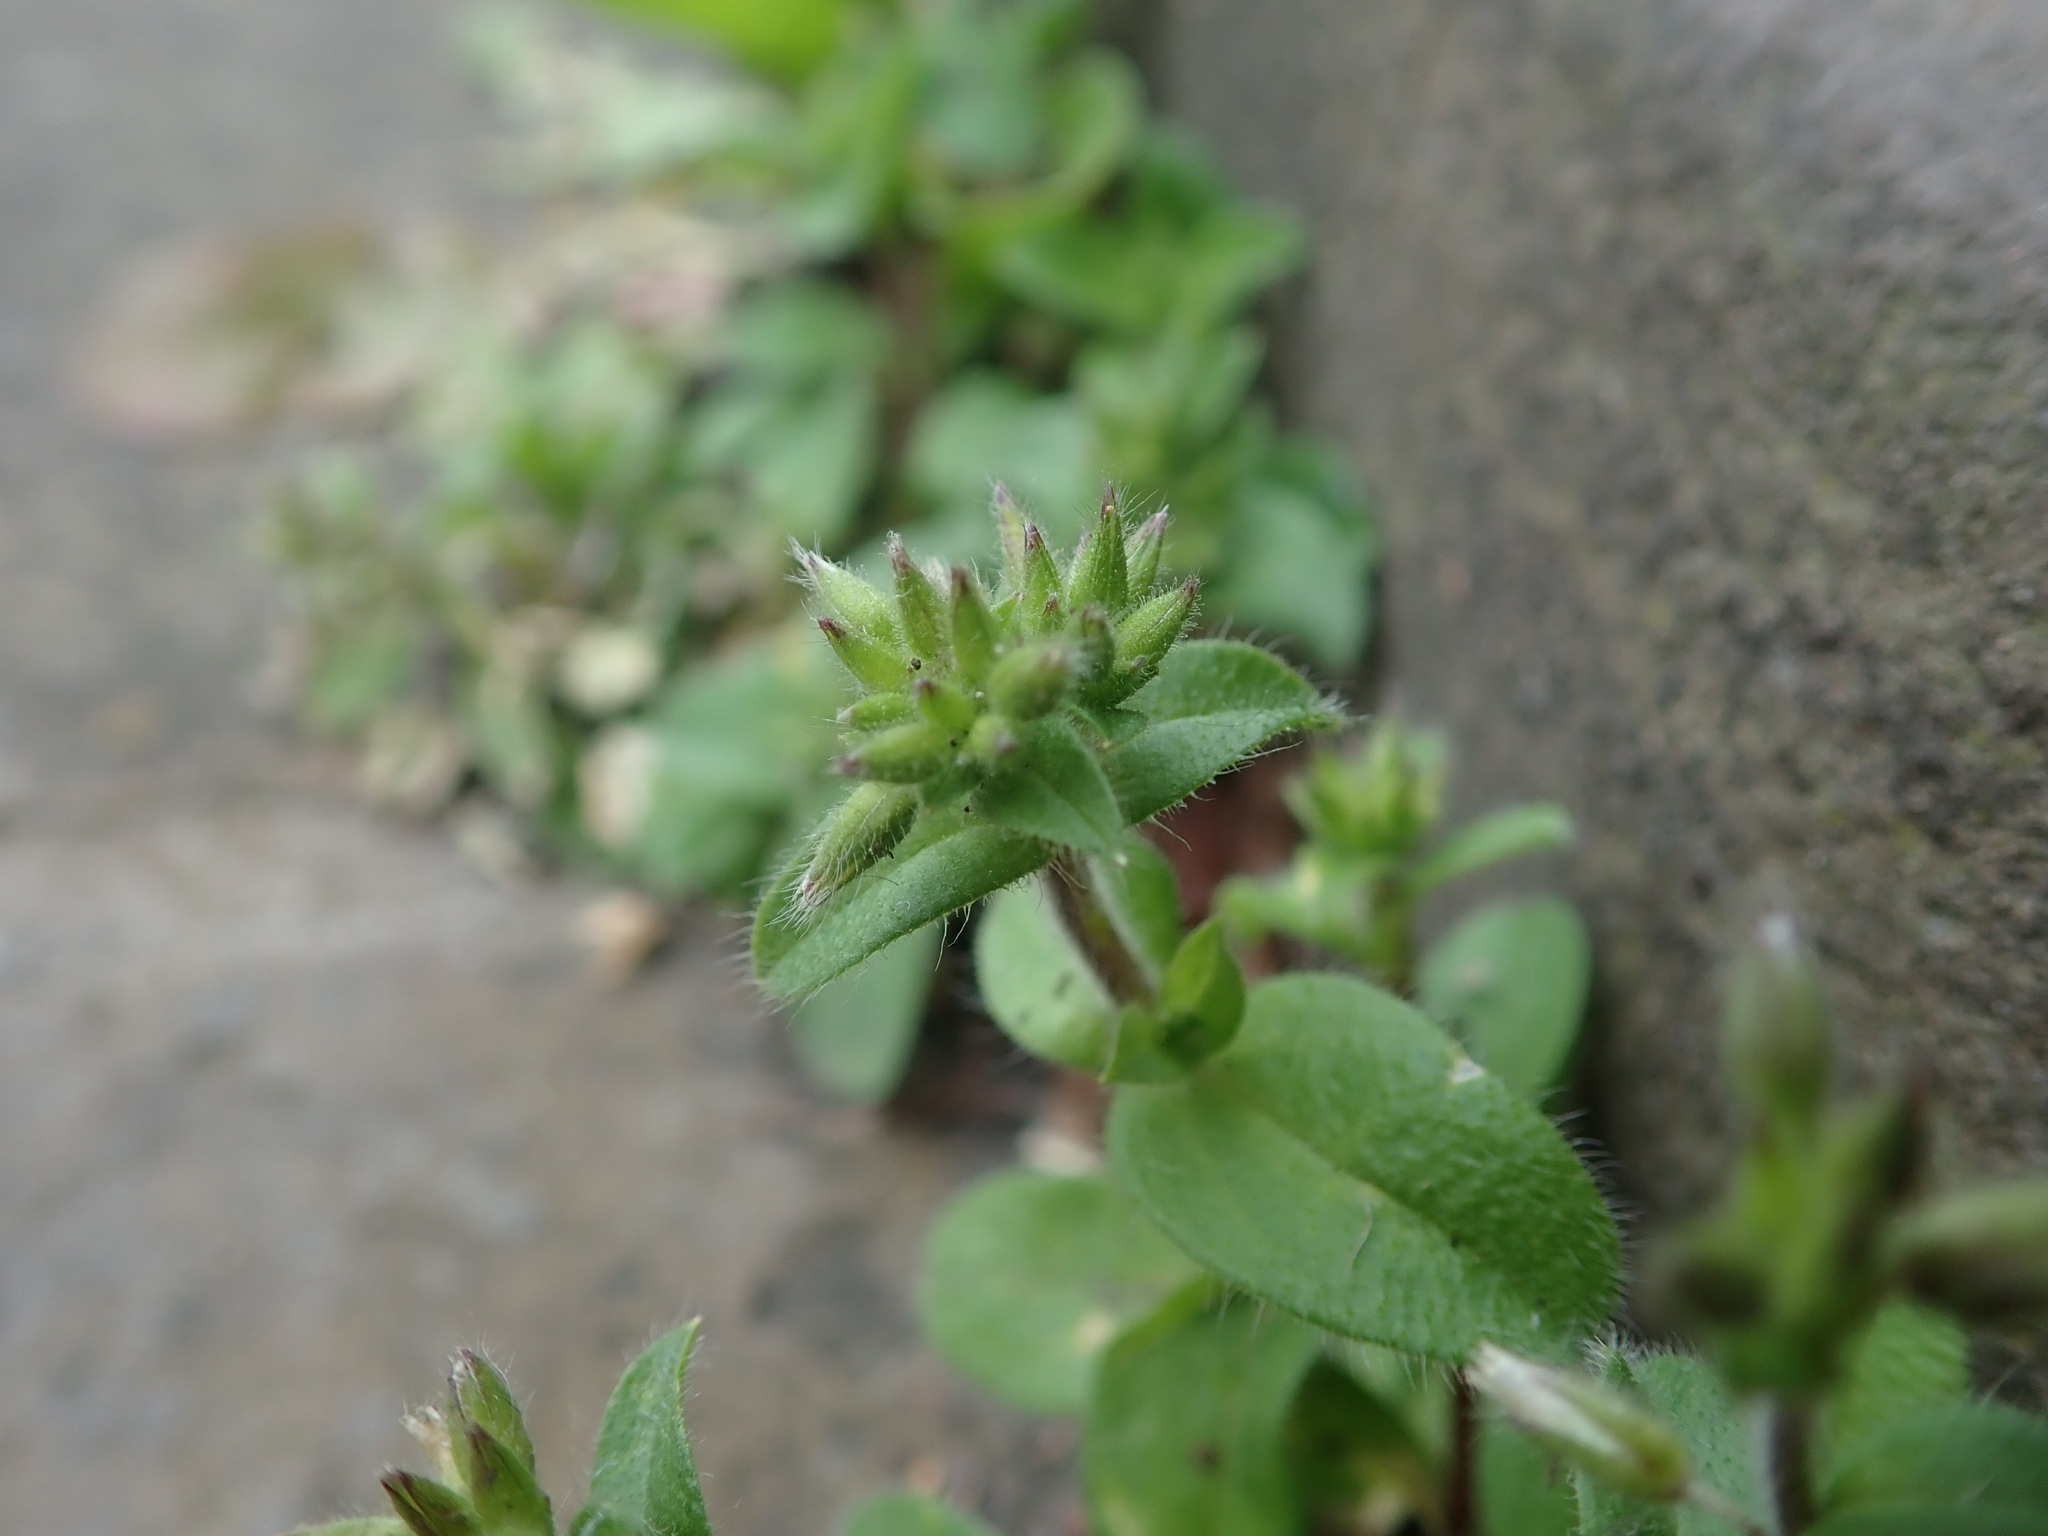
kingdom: Plantae
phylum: Tracheophyta
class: Magnoliopsida
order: Caryophyllales
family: Caryophyllaceae
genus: Cerastium
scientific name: Cerastium glomeratum
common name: Sticky chickweed
